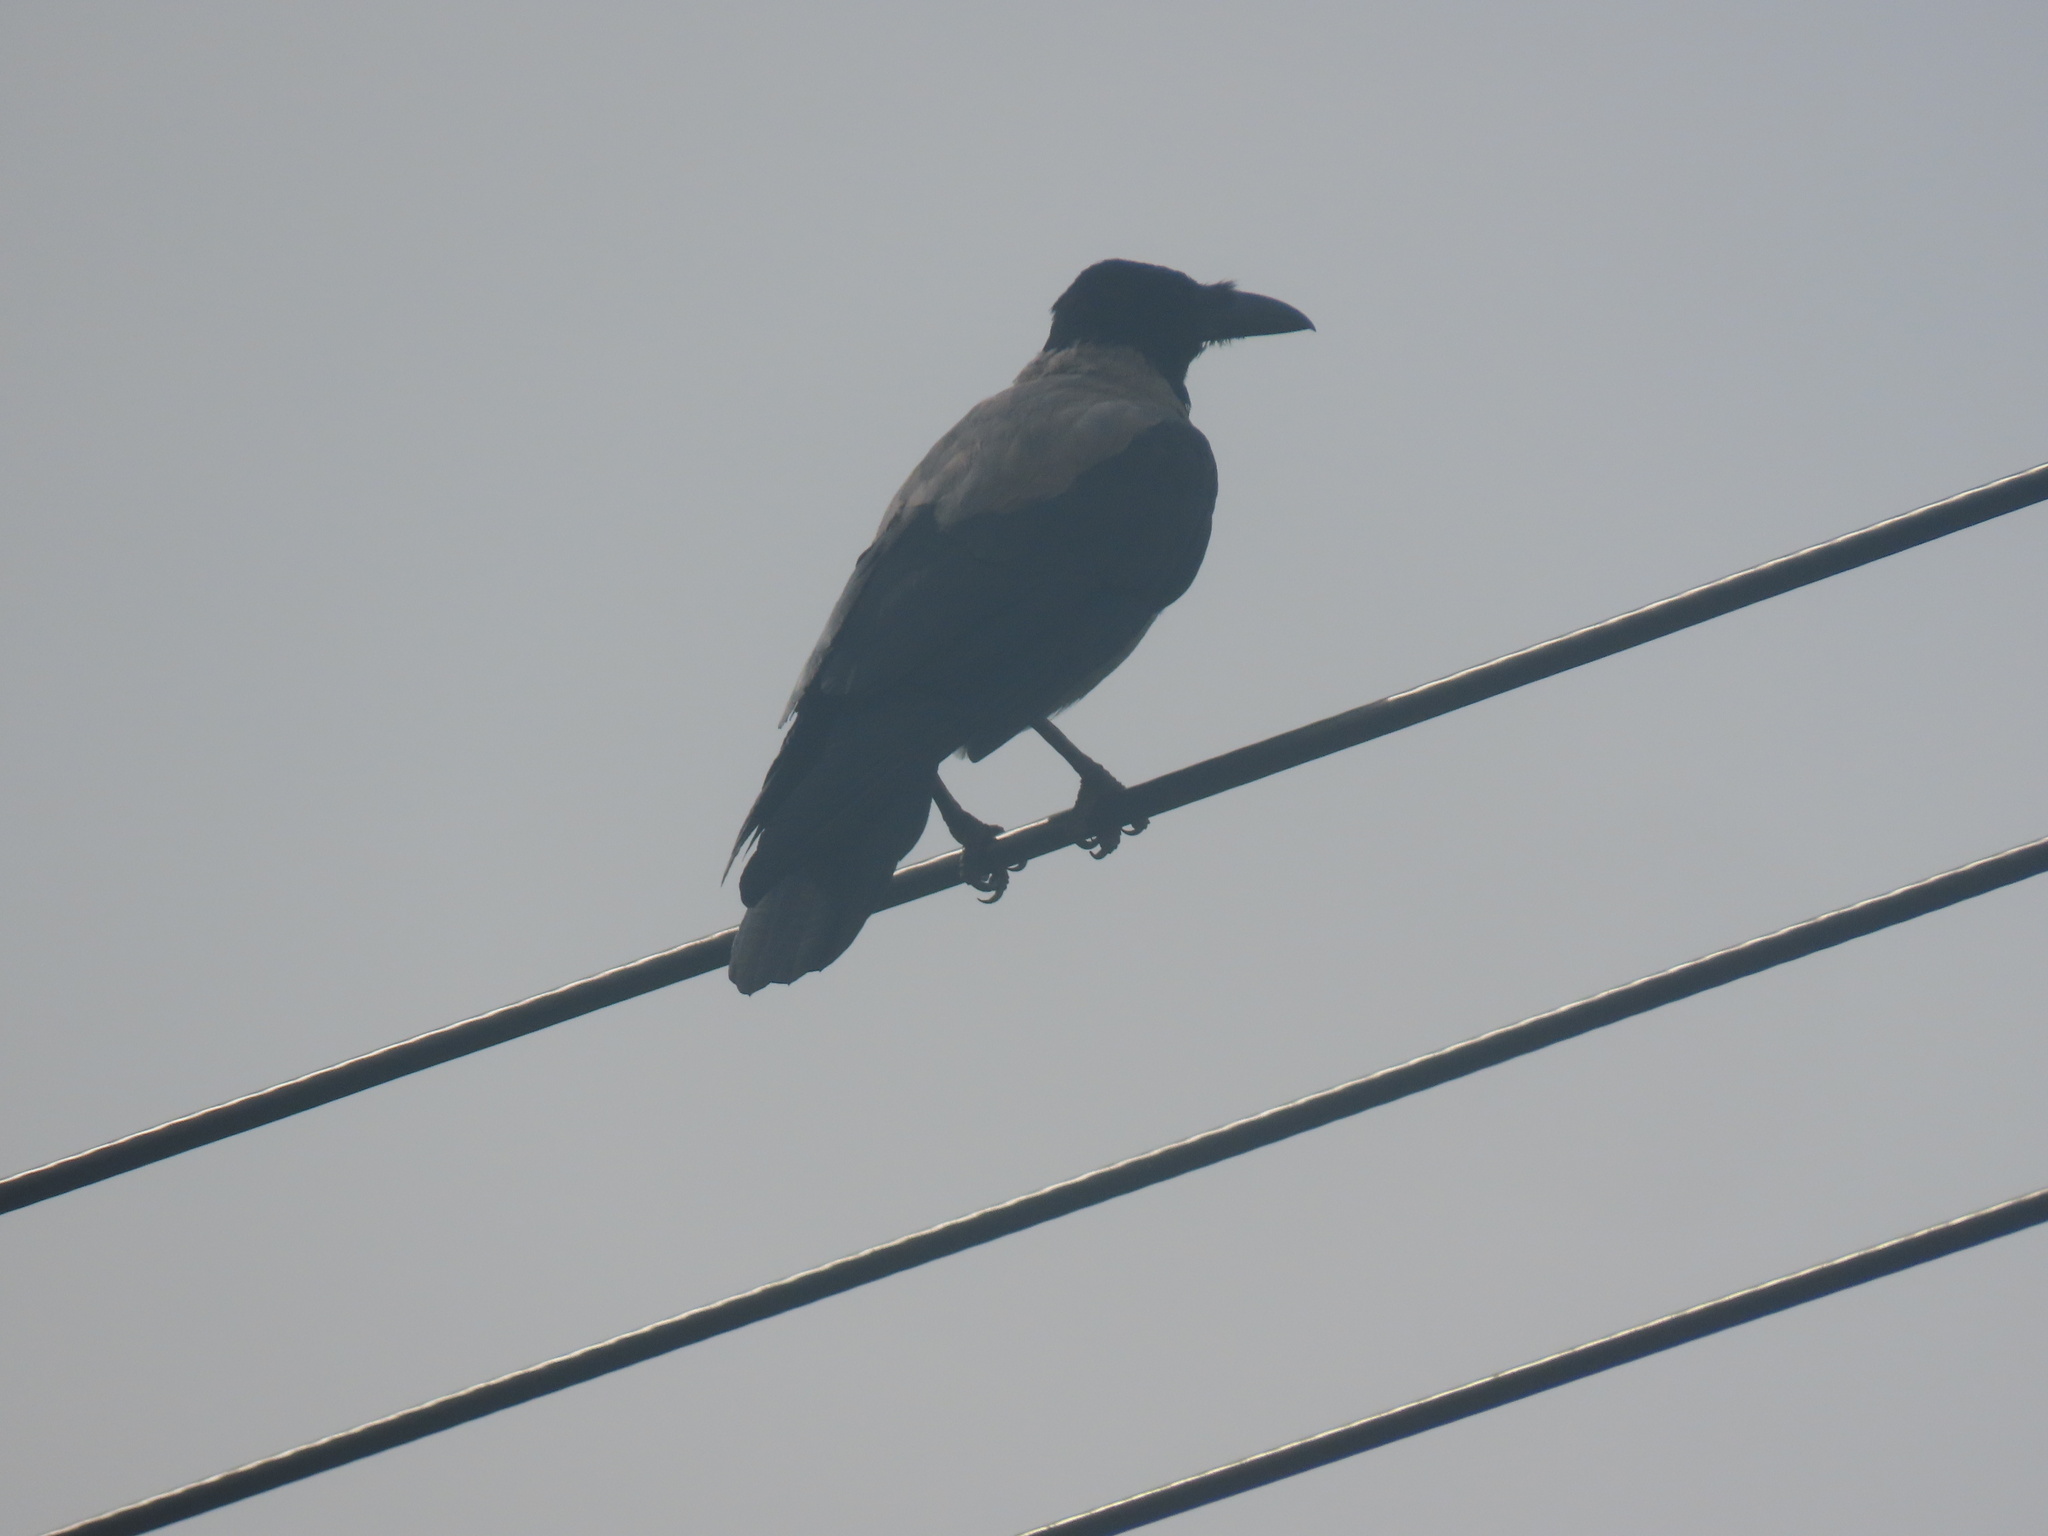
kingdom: Animalia
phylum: Chordata
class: Aves
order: Passeriformes
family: Corvidae
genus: Corvus
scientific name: Corvus cornix
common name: Hooded crow
